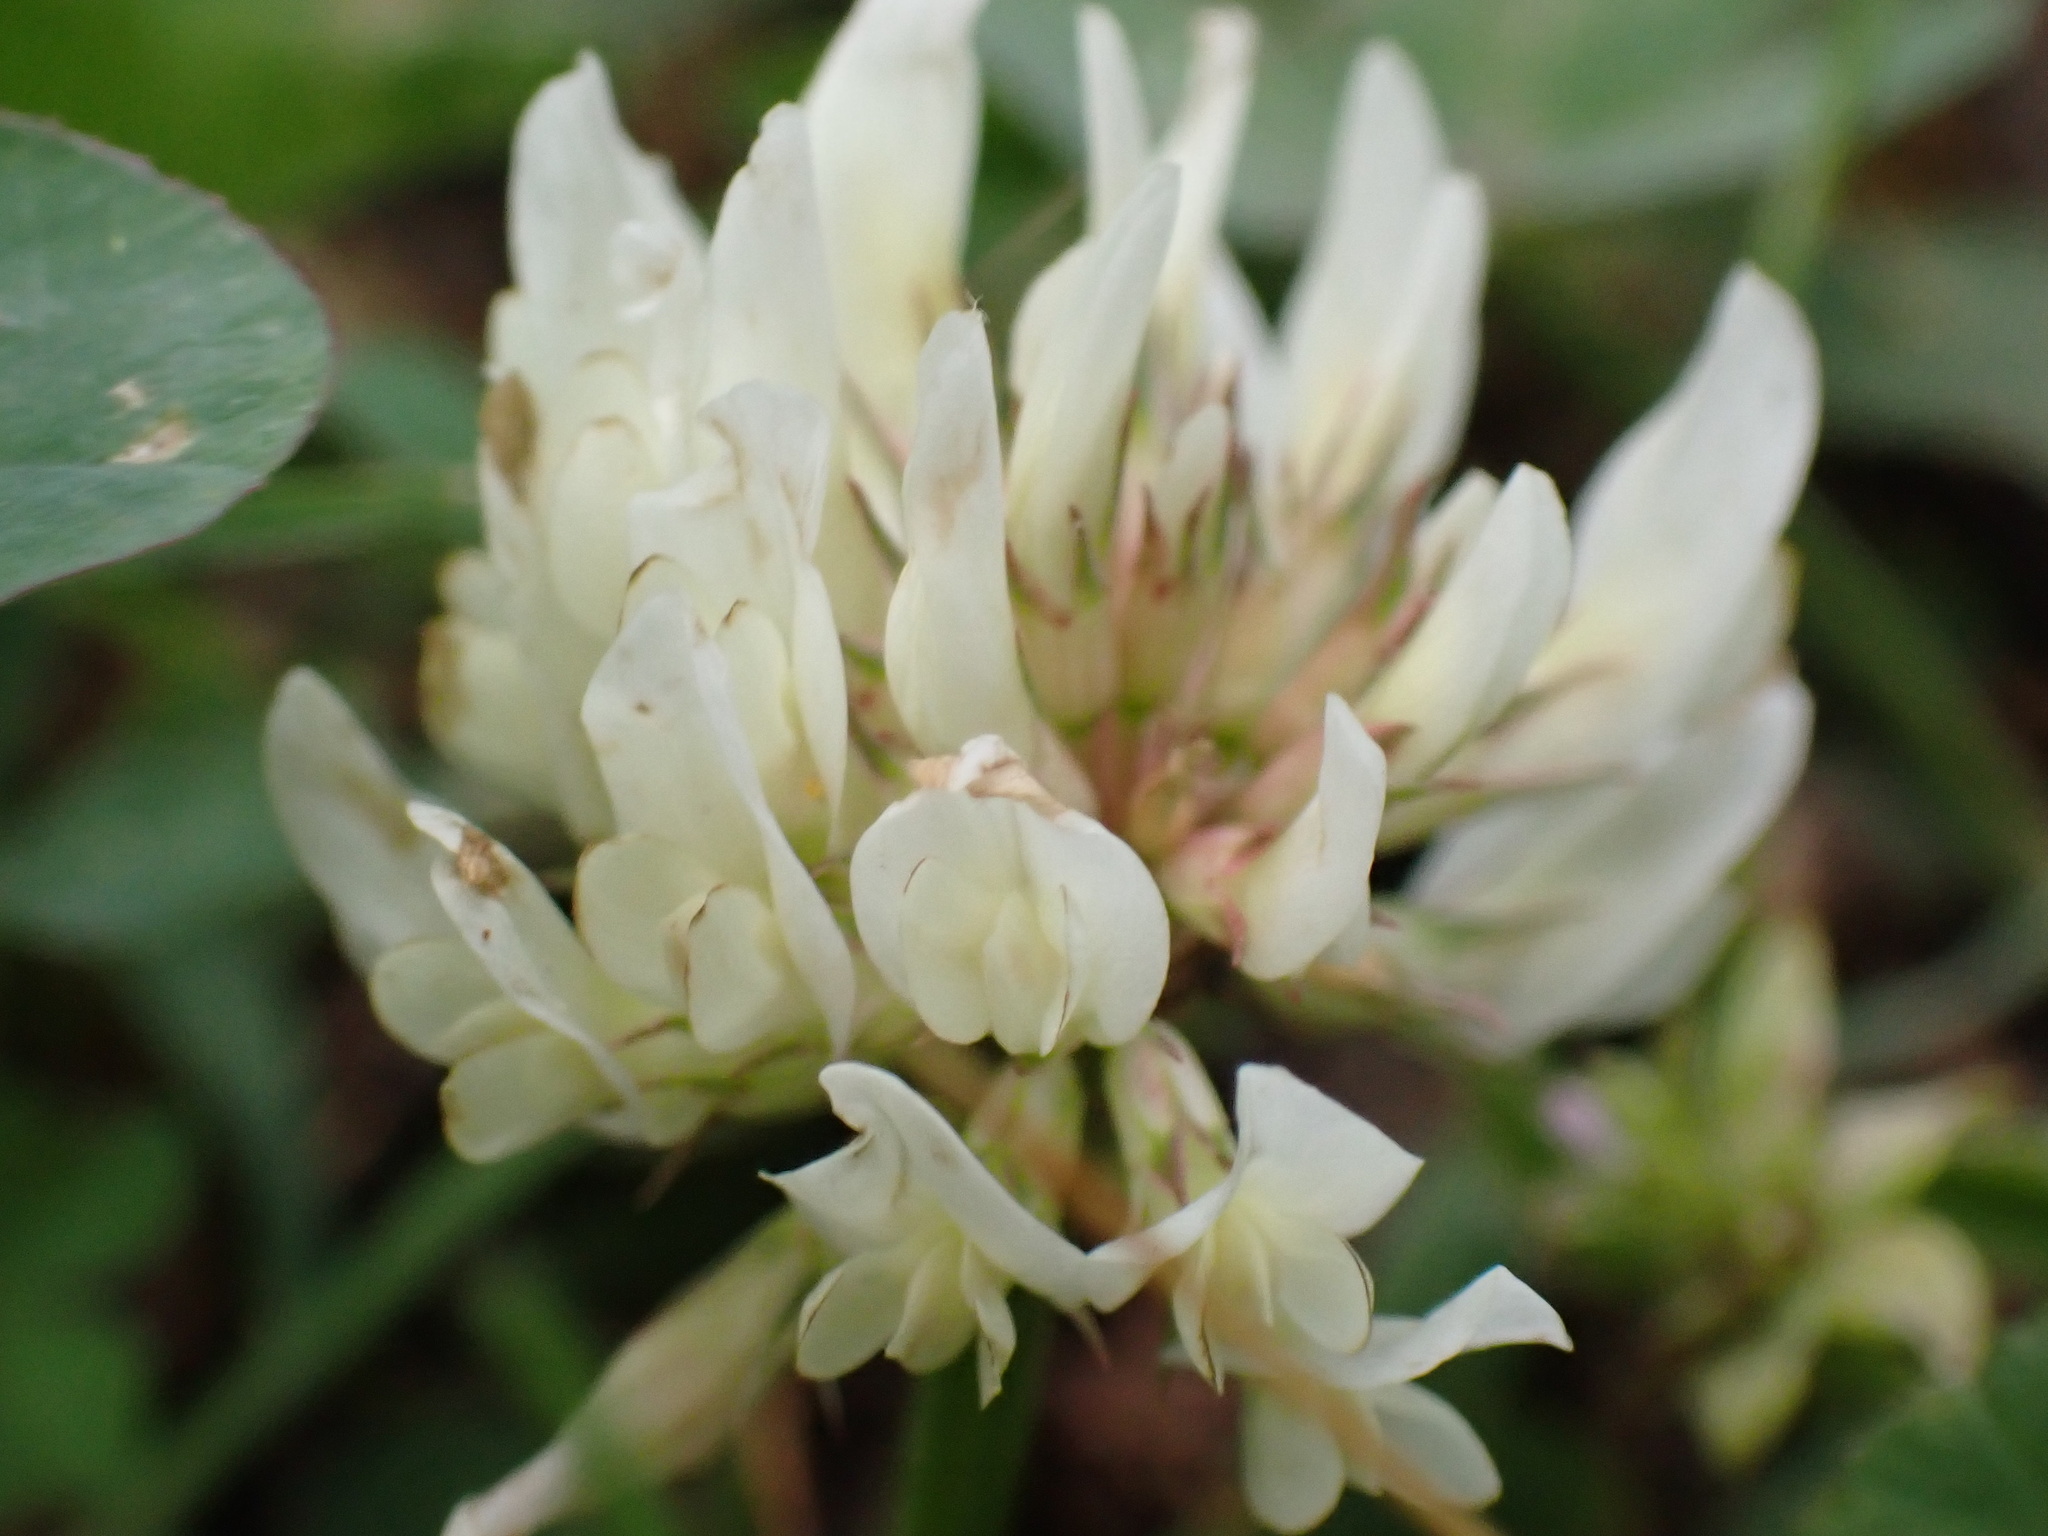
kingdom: Plantae
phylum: Tracheophyta
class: Magnoliopsida
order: Fabales
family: Fabaceae
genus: Trifolium
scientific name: Trifolium repens
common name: White clover
